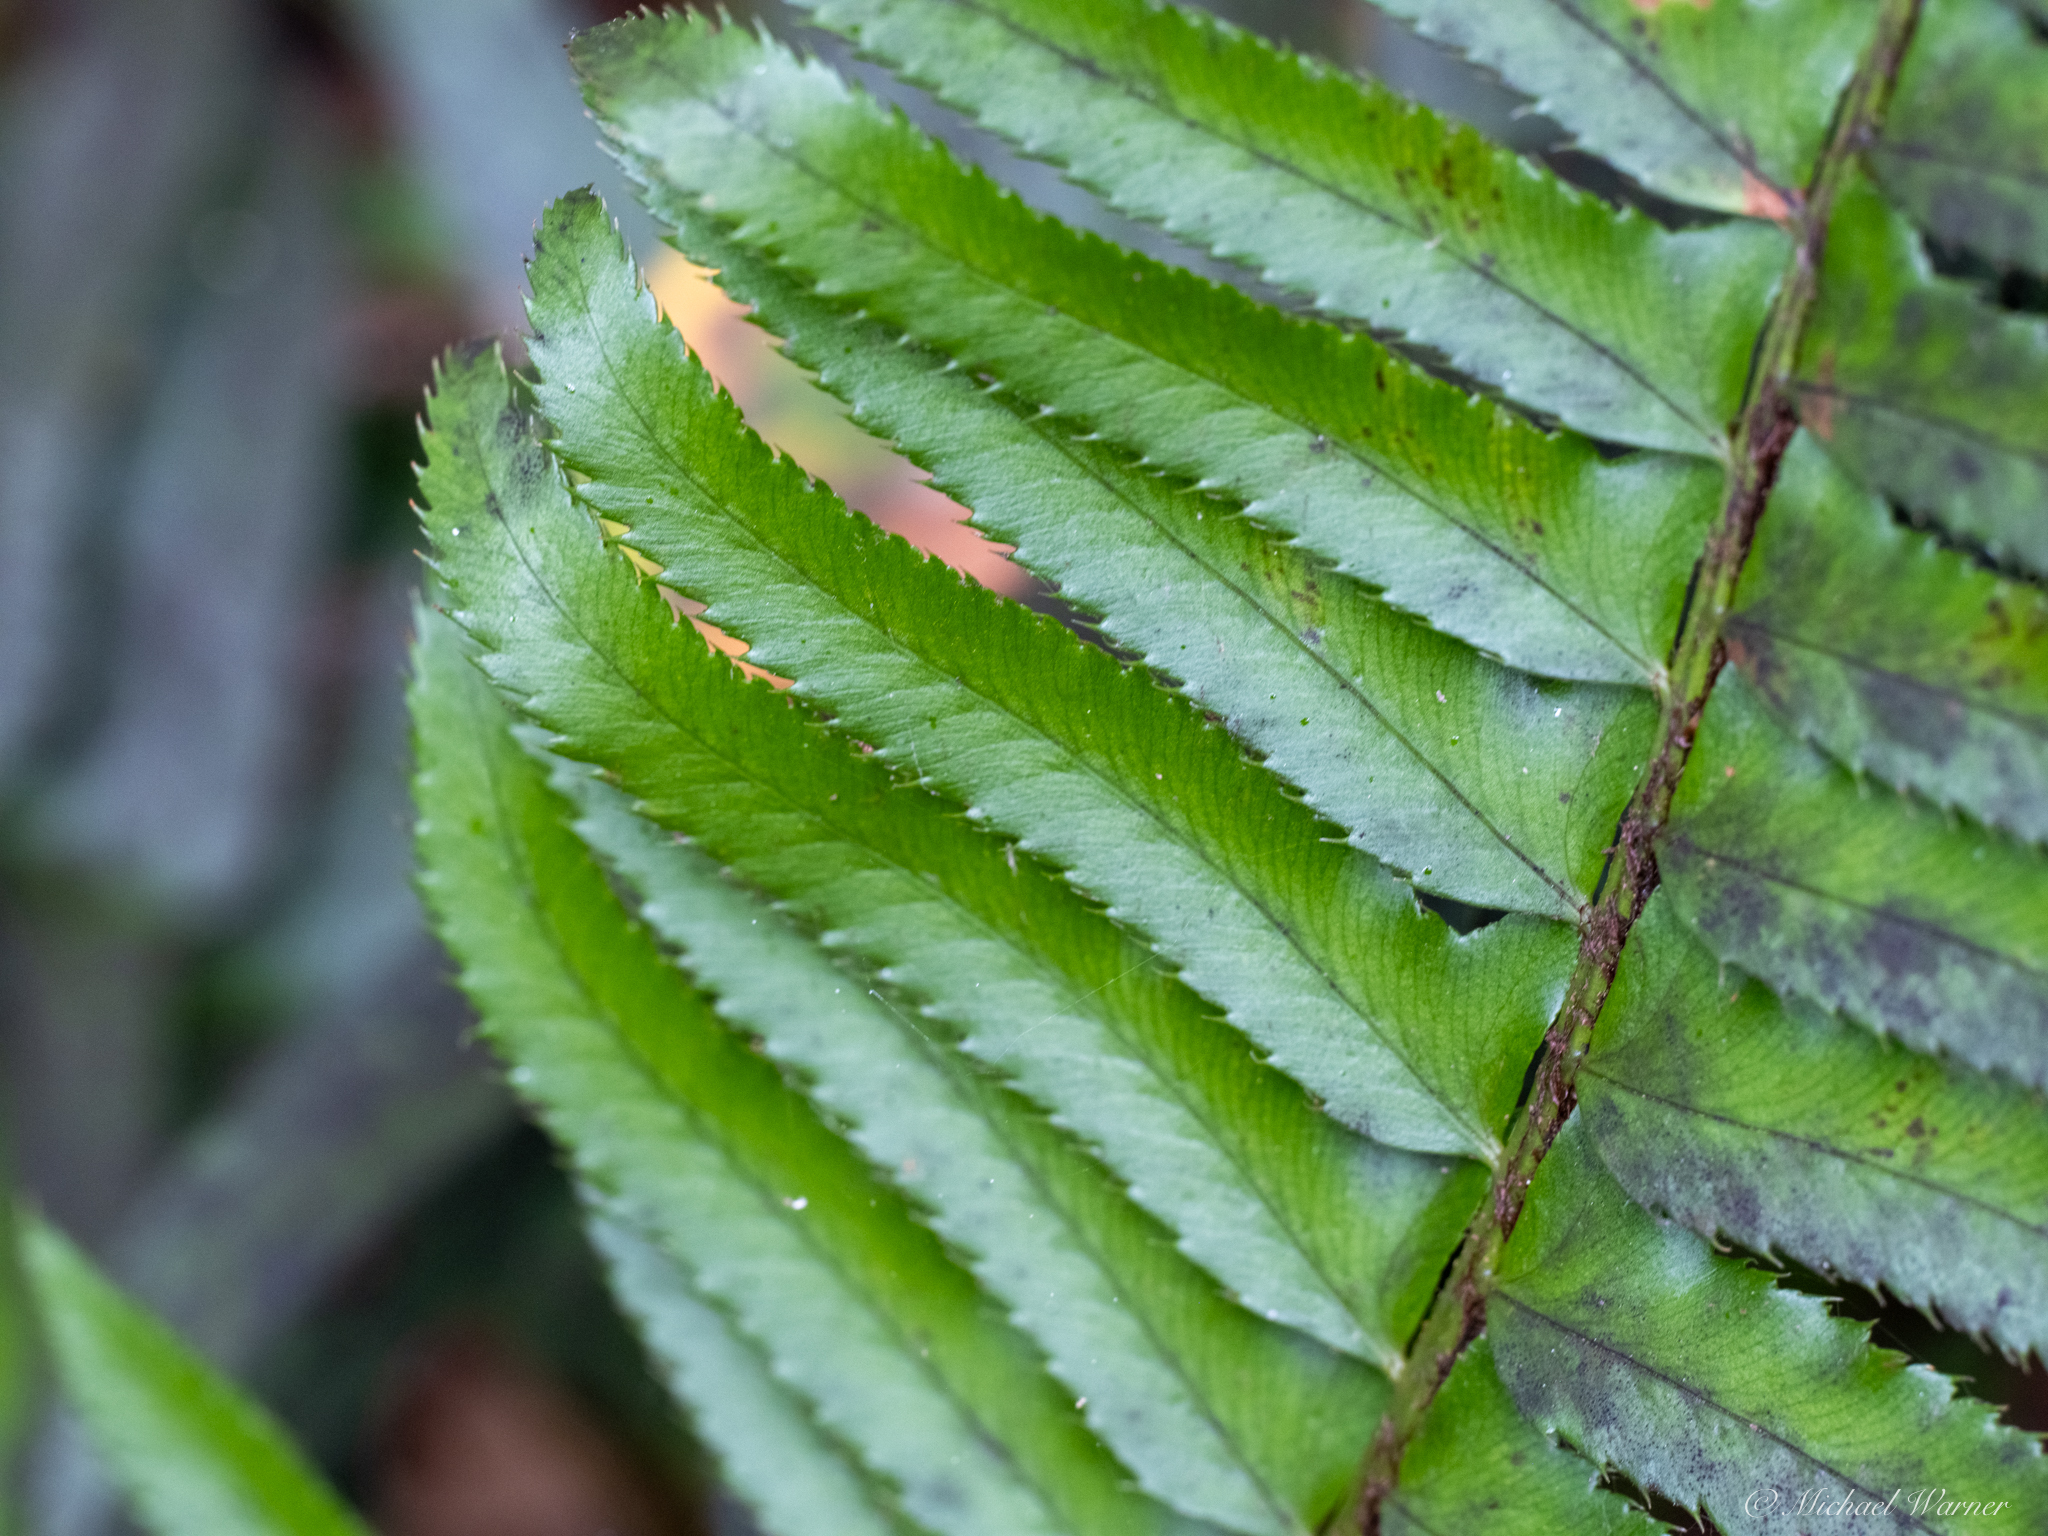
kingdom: Plantae
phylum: Tracheophyta
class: Polypodiopsida
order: Polypodiales
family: Dryopteridaceae
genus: Polystichum
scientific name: Polystichum munitum
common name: Western sword-fern
